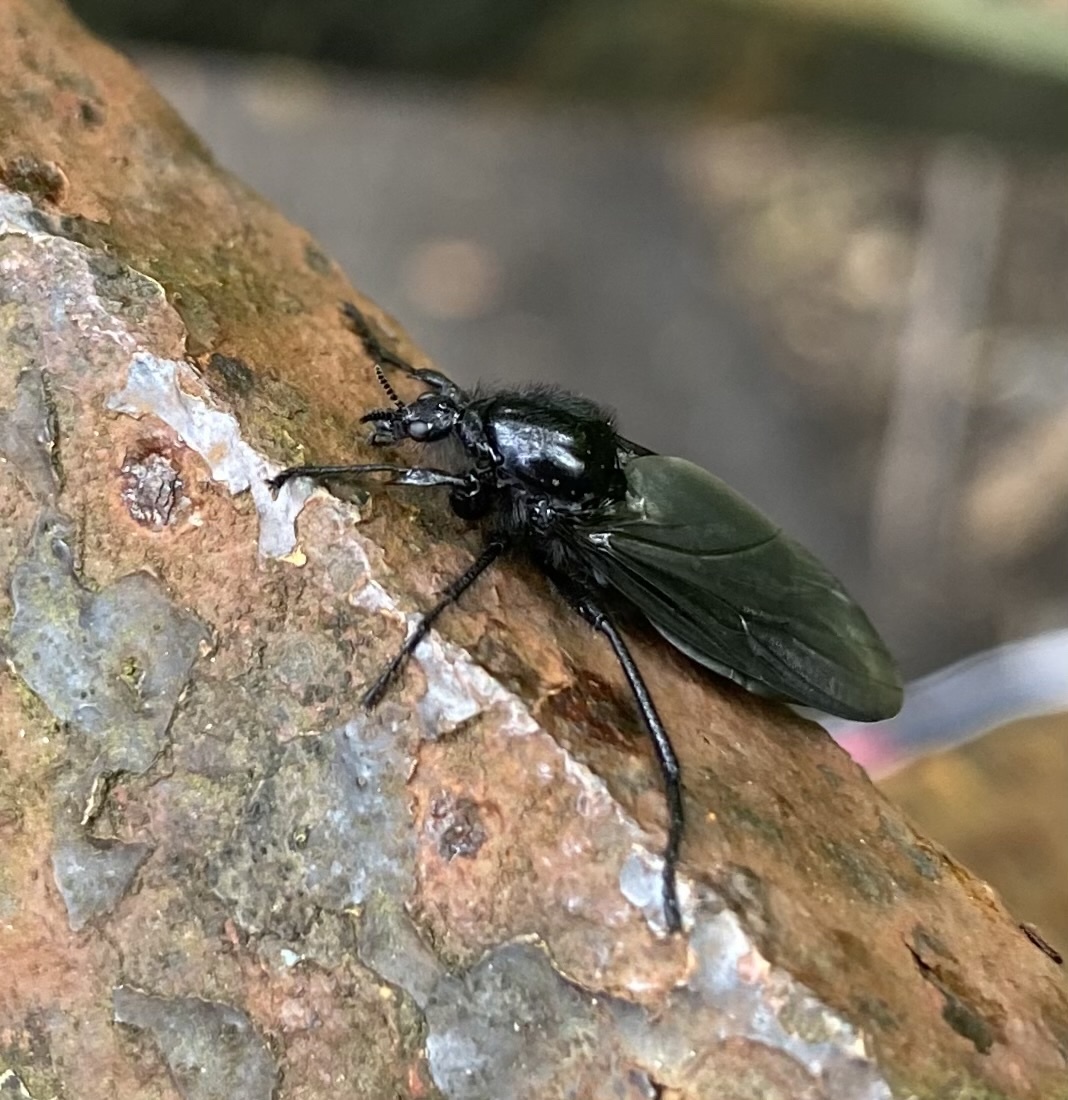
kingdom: Animalia
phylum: Arthropoda
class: Insecta
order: Diptera
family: Bibionidae
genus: Bibio
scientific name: Bibio marci
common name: St marks fly
